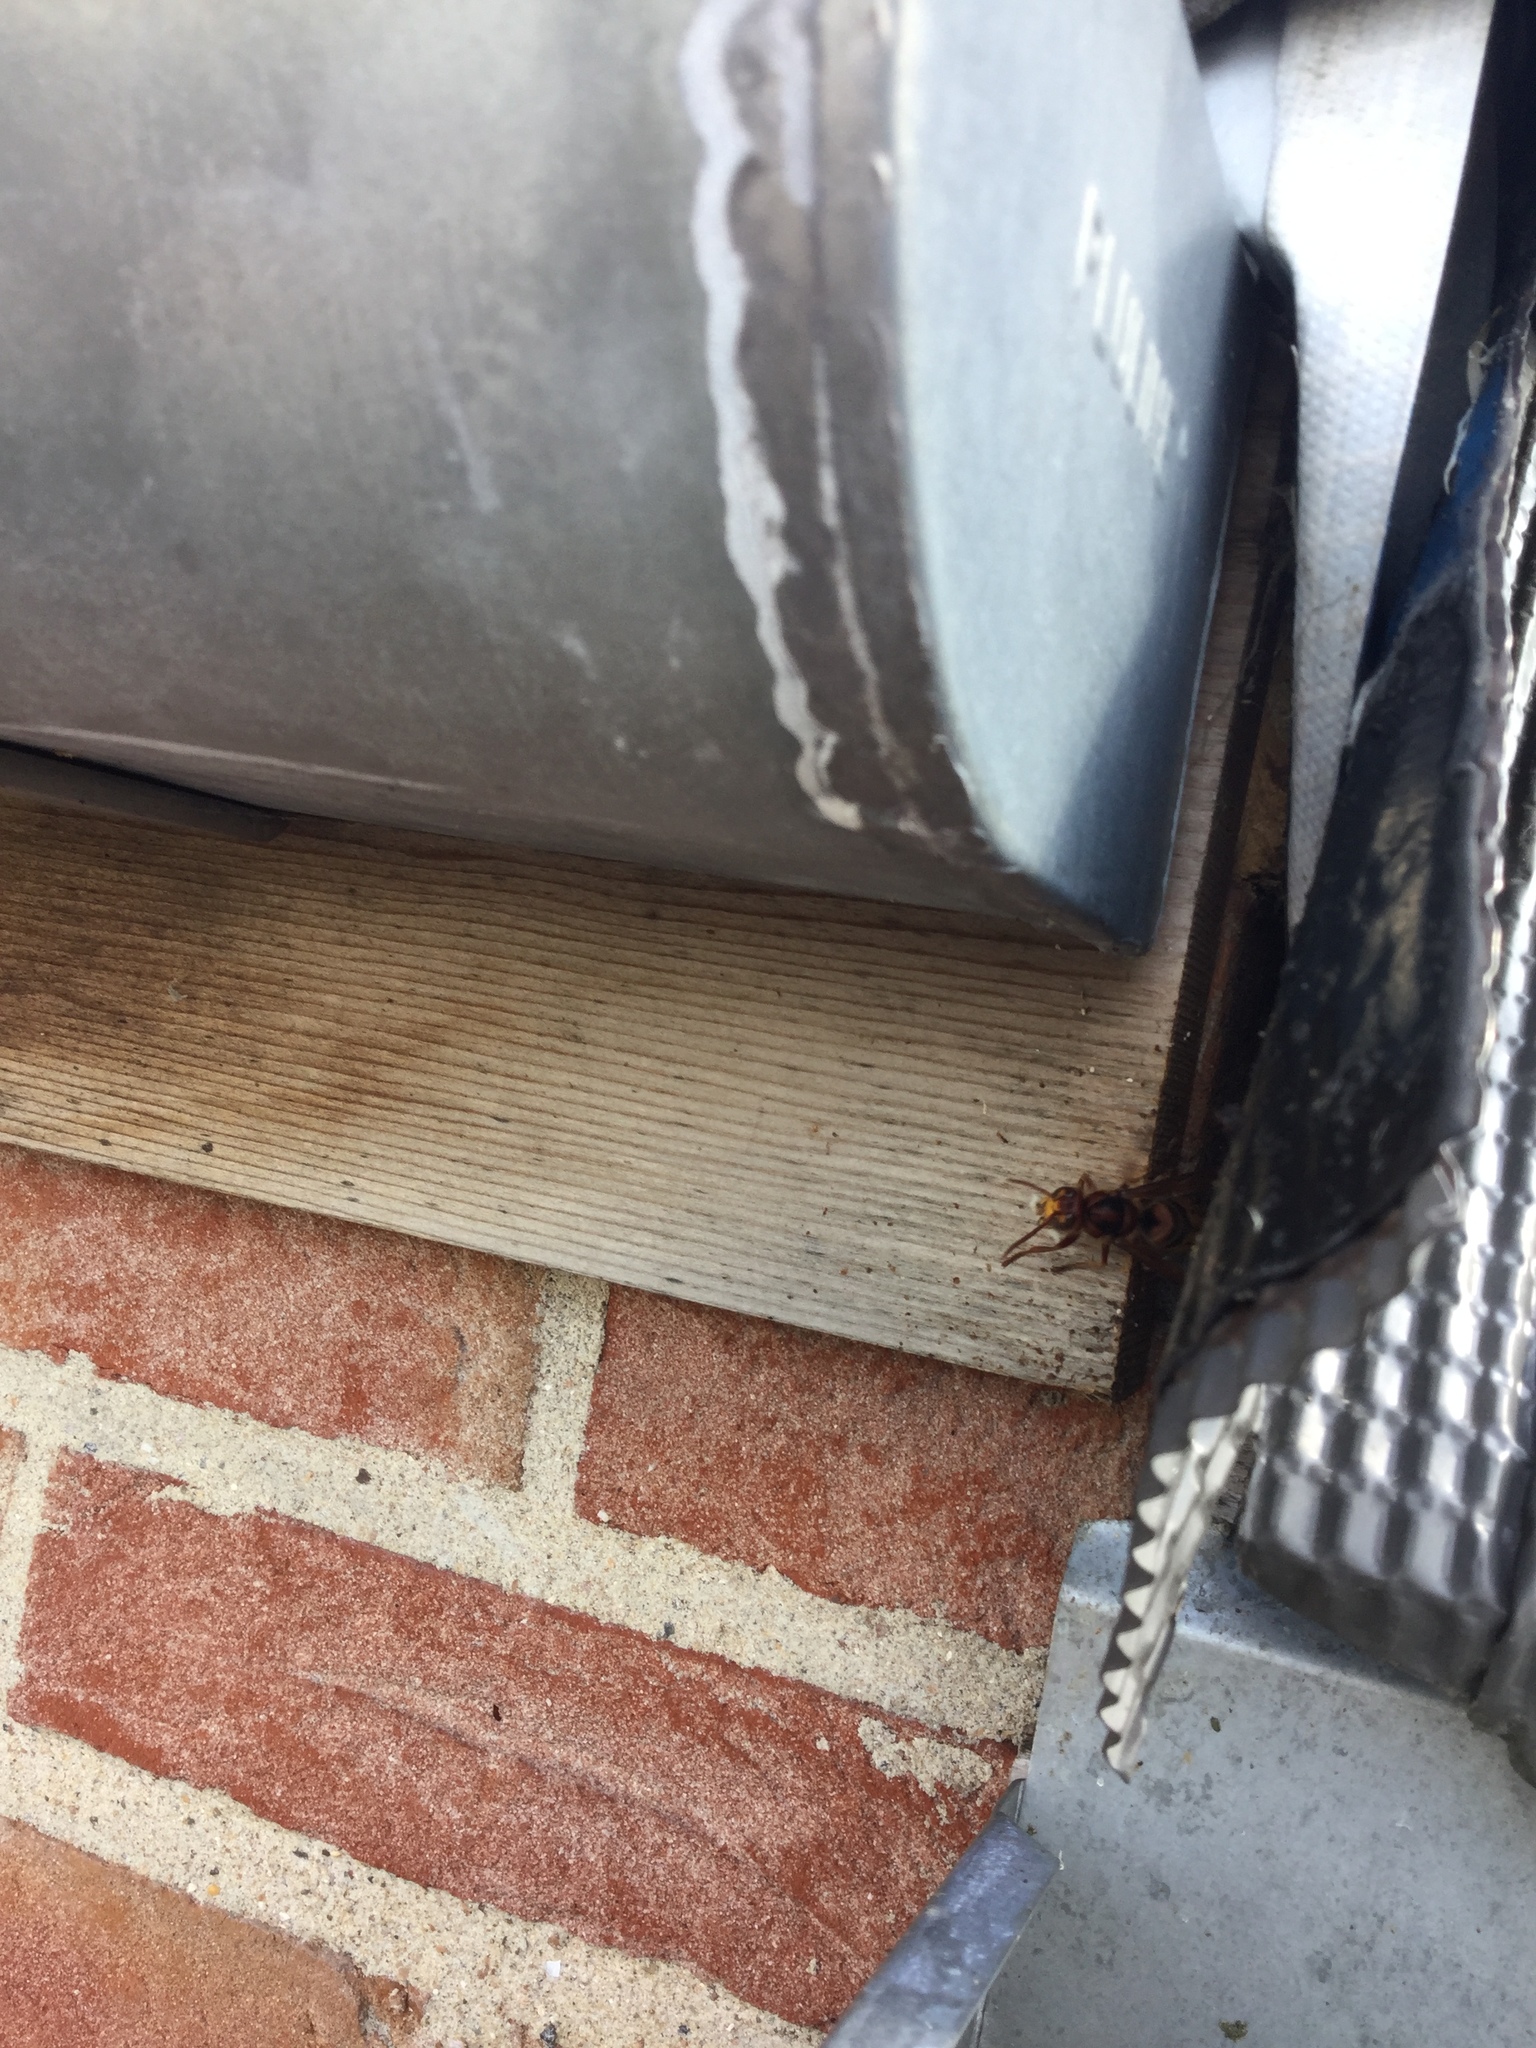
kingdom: Animalia
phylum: Arthropoda
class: Insecta
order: Hymenoptera
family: Vespidae
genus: Vespa
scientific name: Vespa crabro
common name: Hornet
